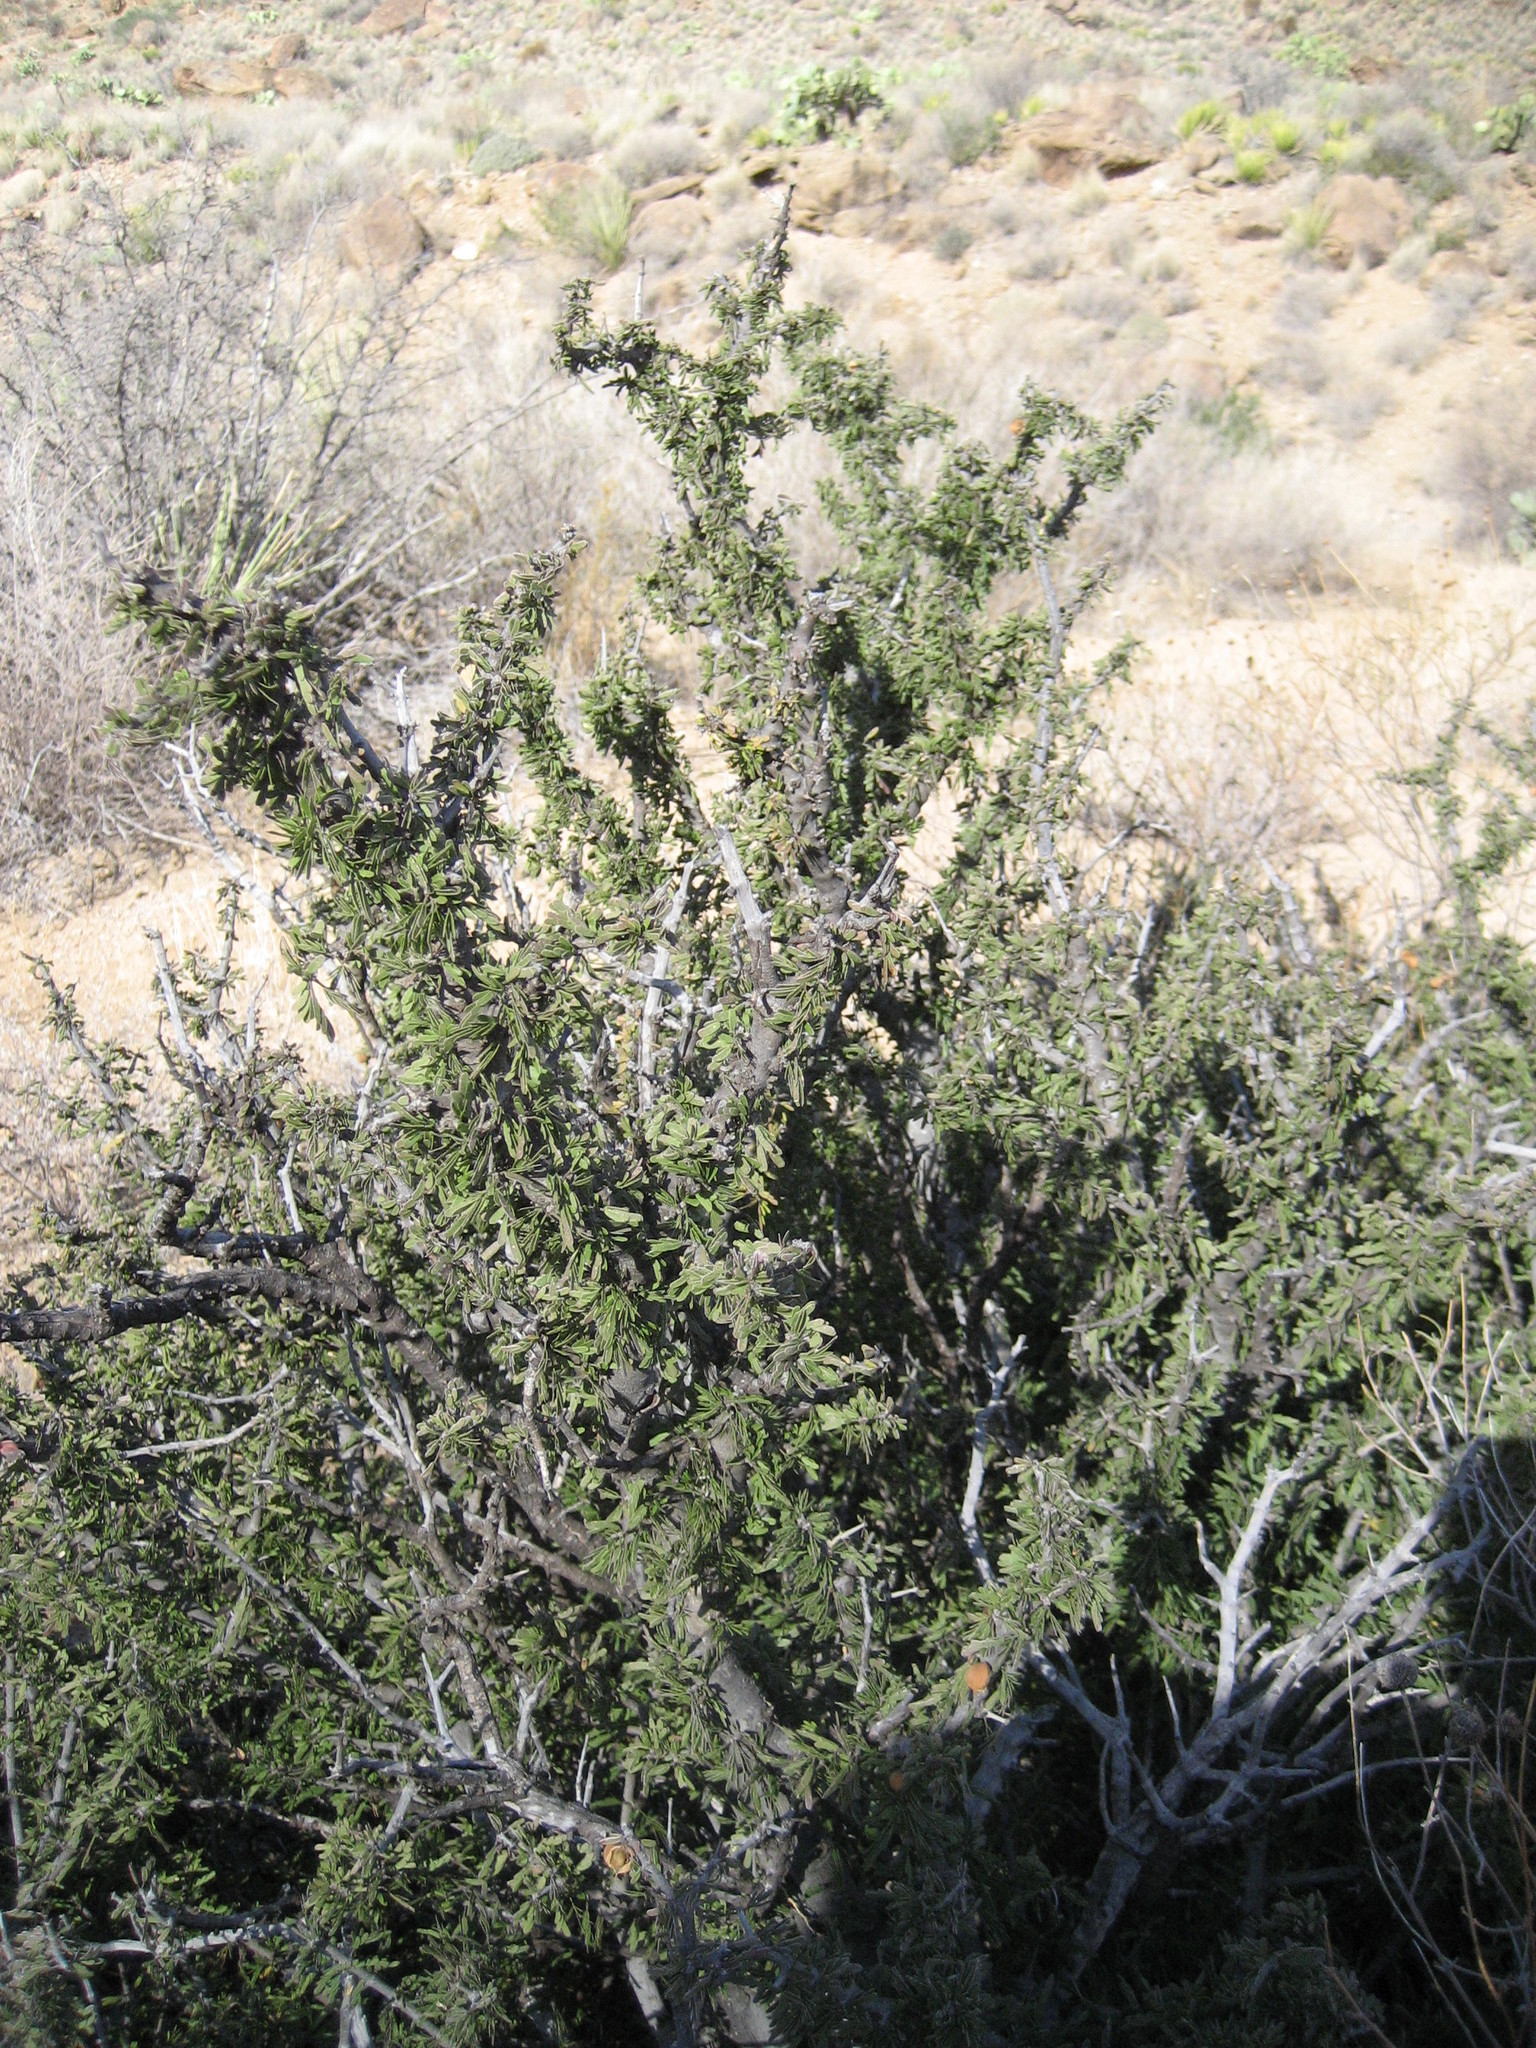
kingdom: Plantae
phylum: Tracheophyta
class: Magnoliopsida
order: Zygophyllales
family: Zygophyllaceae
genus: Porlieria
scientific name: Porlieria angustifolia
